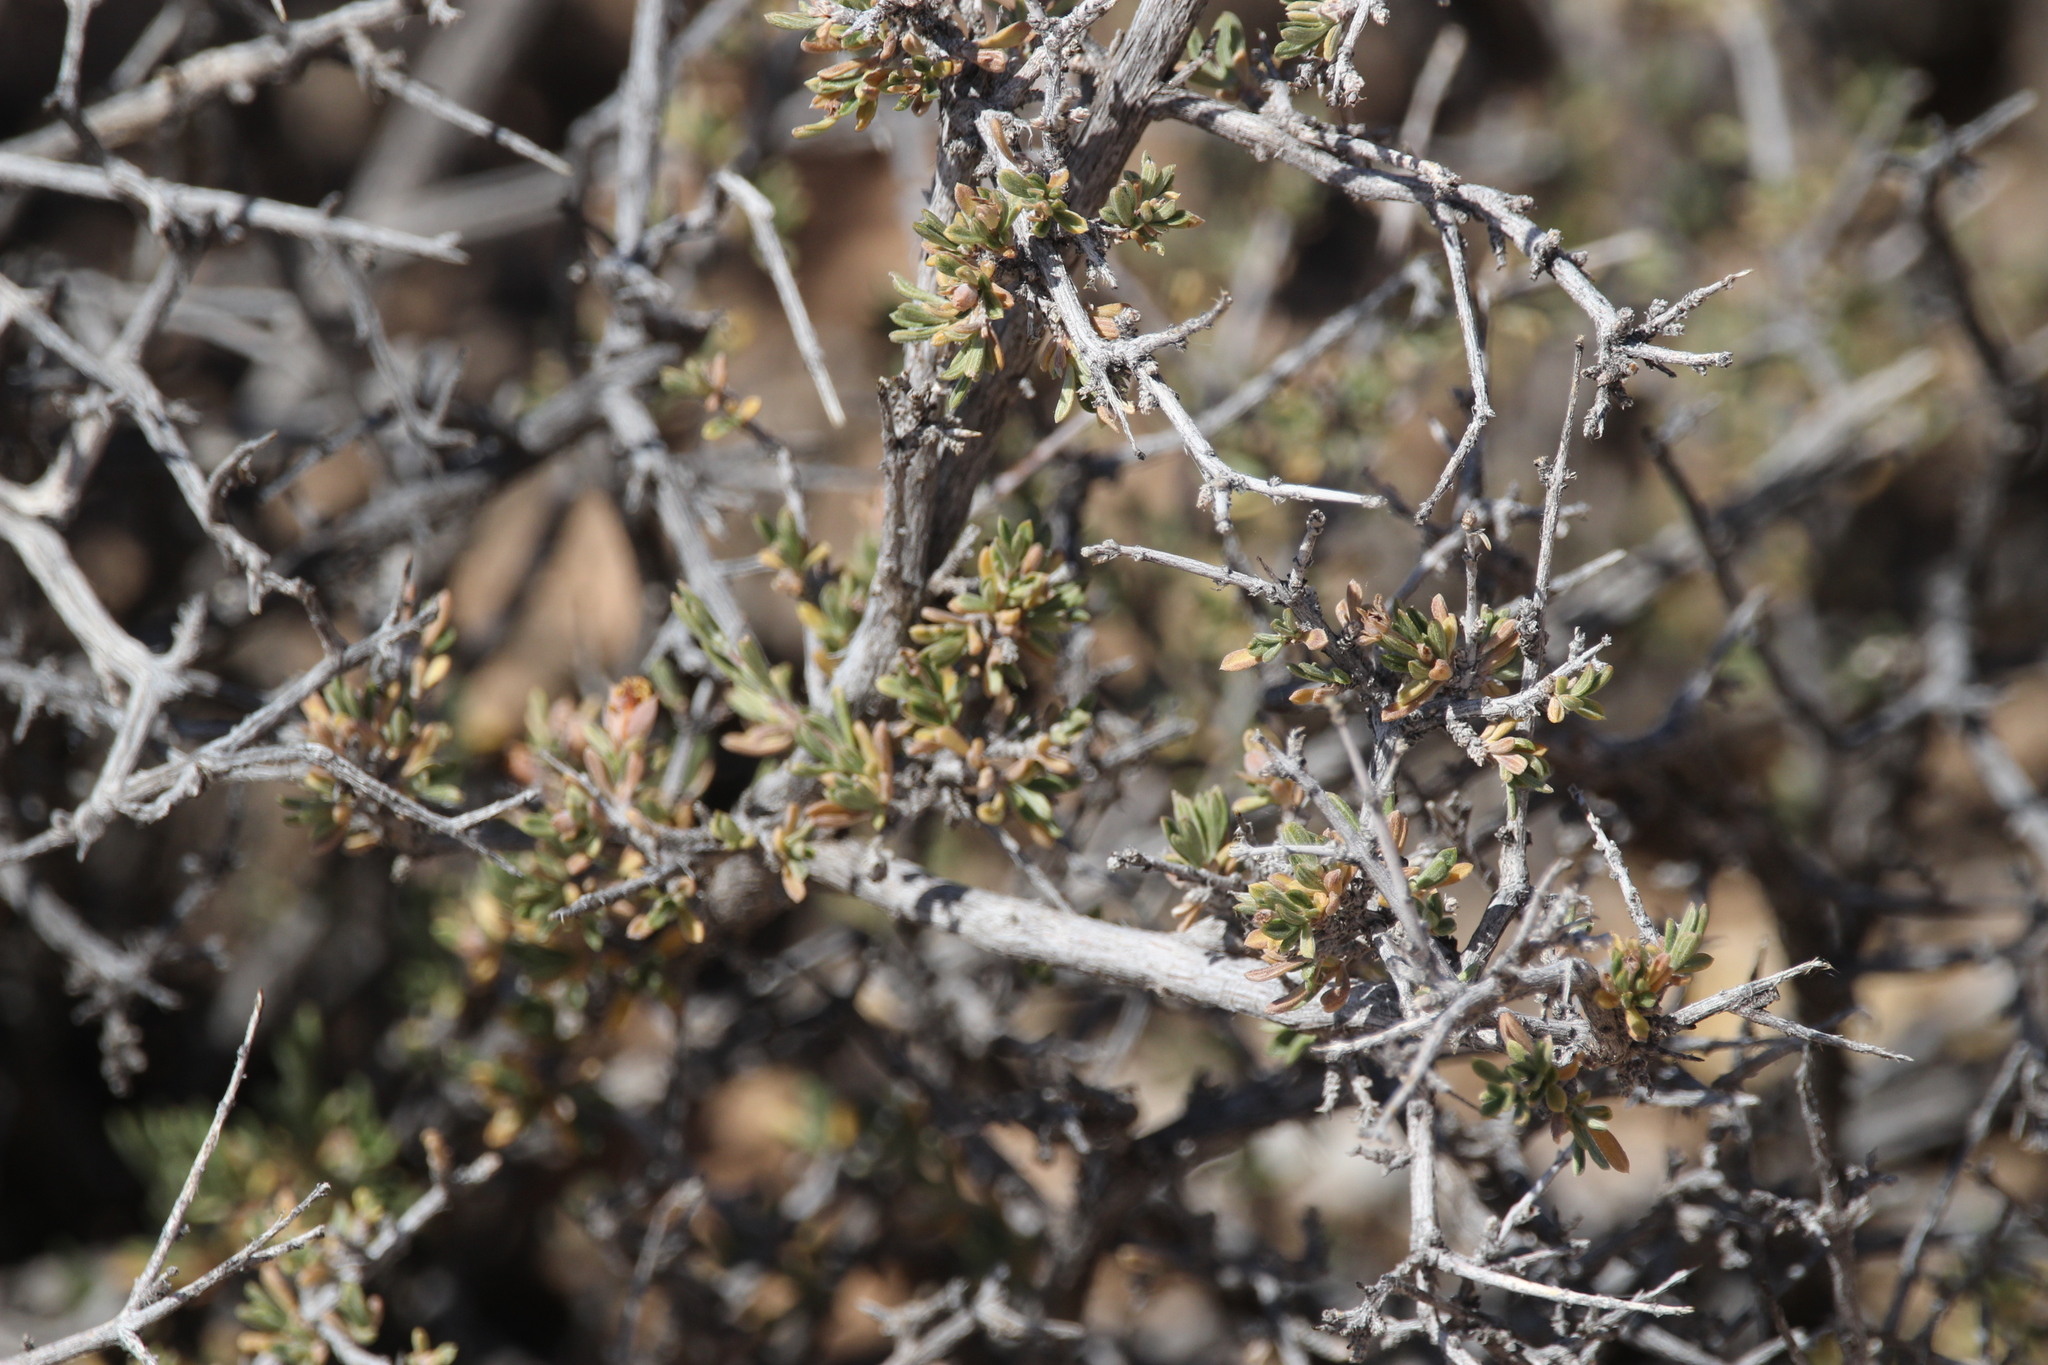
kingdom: Plantae
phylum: Tracheophyta
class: Magnoliopsida
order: Rosales
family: Rosaceae
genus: Coleogyne
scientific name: Coleogyne ramosissima
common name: Blackbrush
